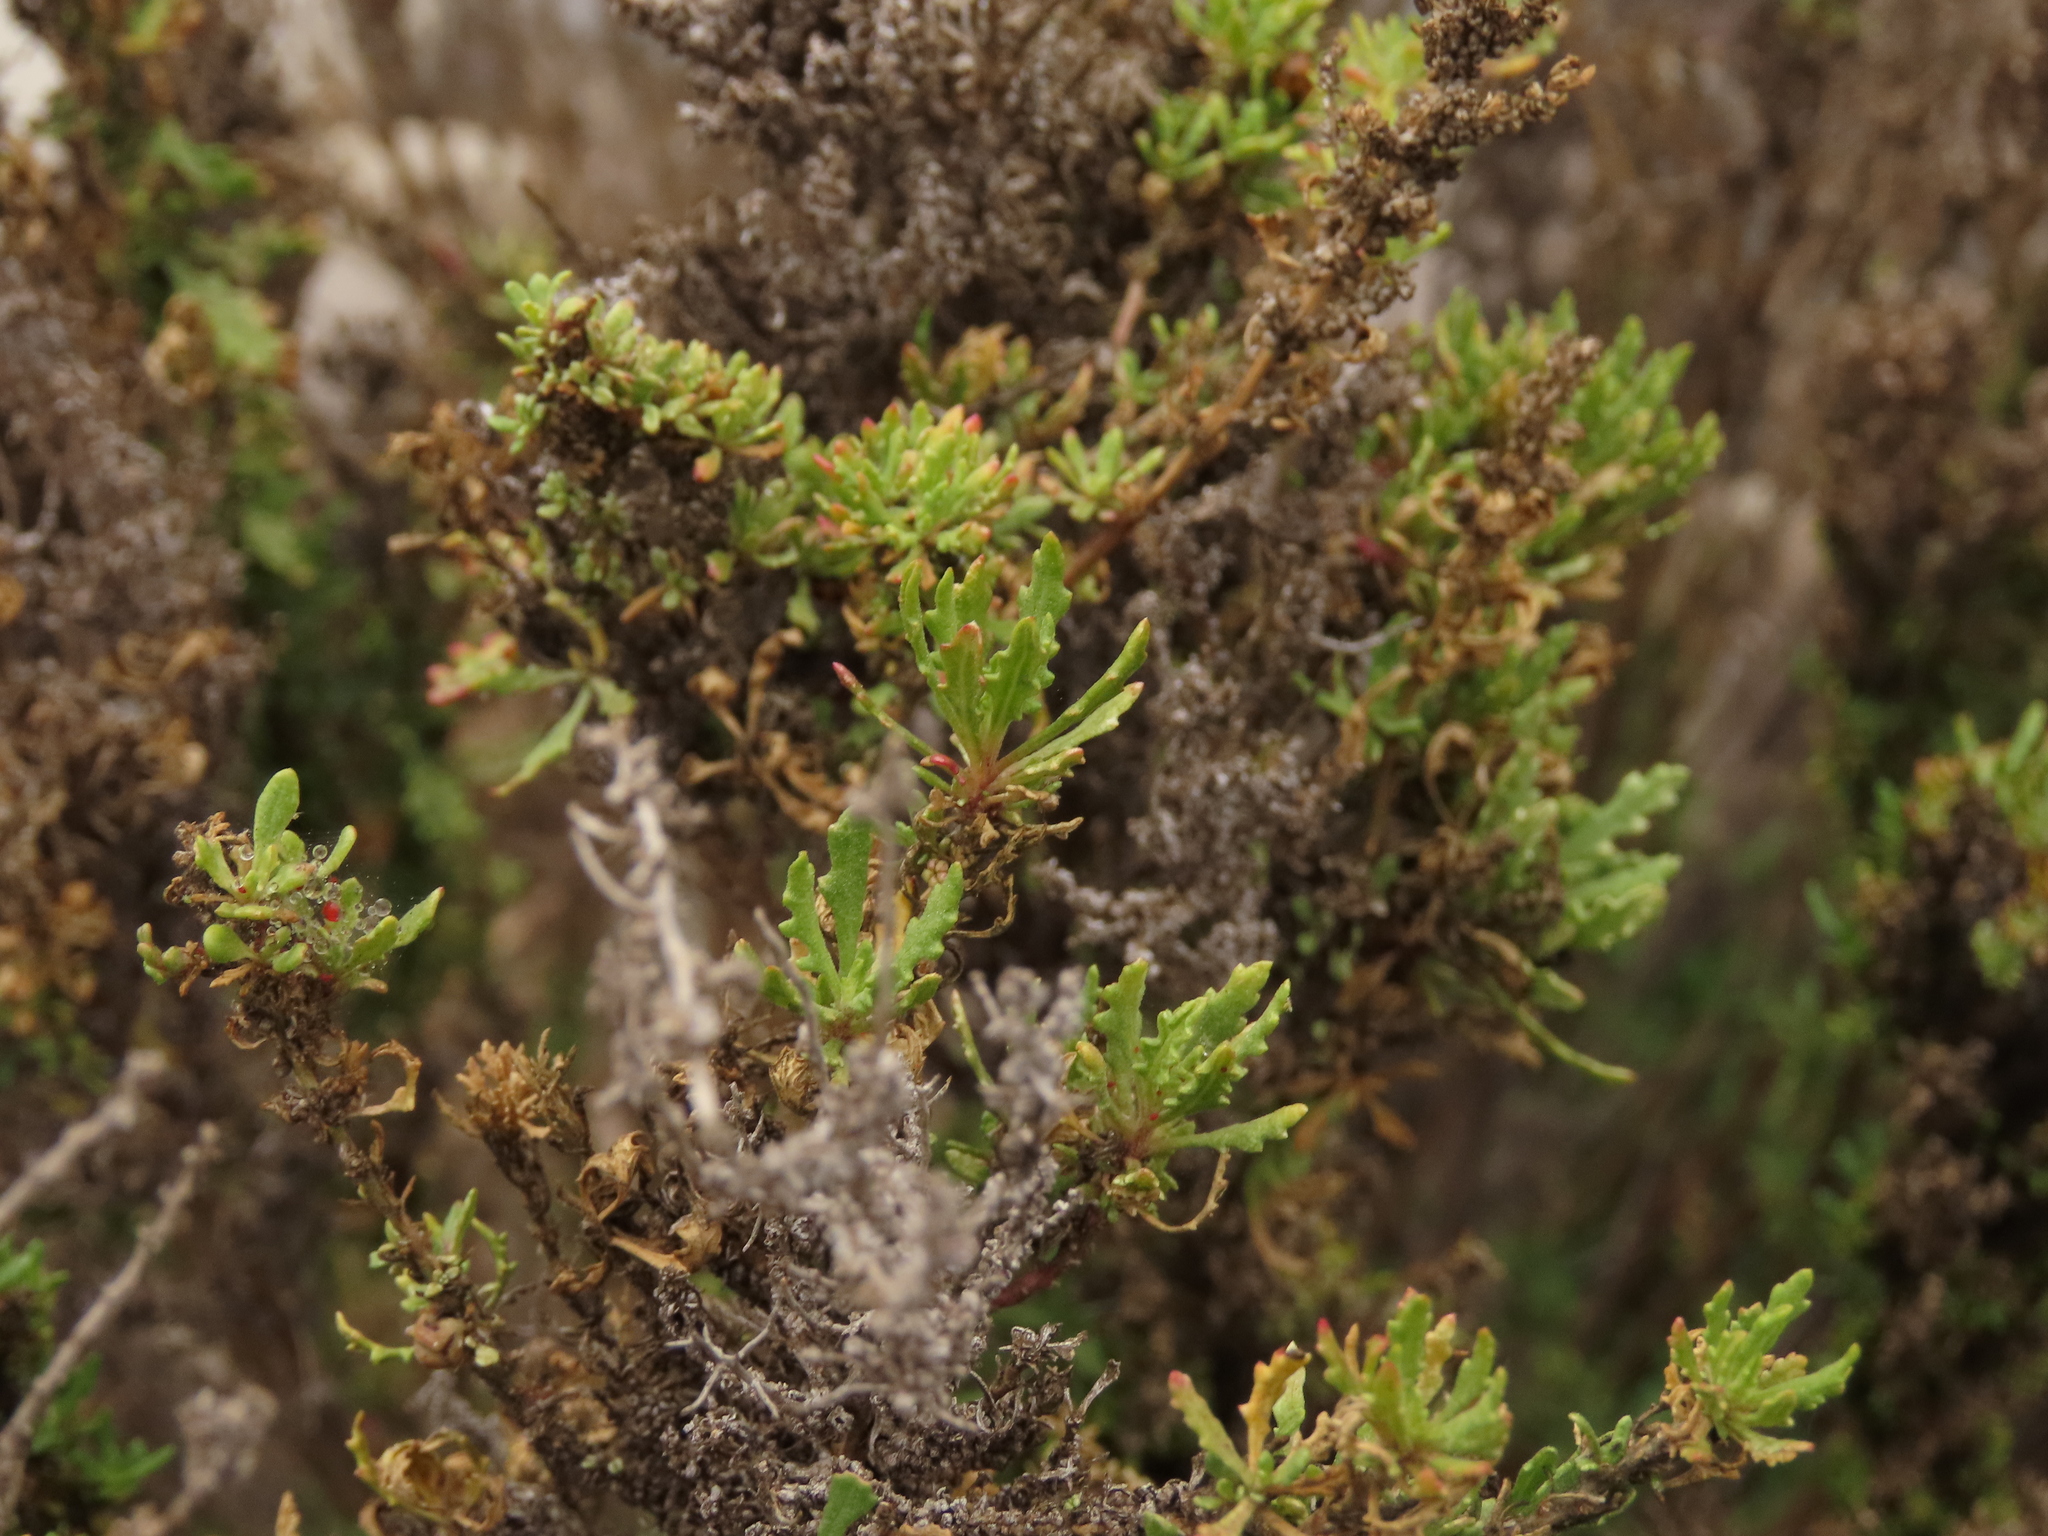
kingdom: Plantae
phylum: Tracheophyta
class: Magnoliopsida
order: Caryophyllales
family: Amaranthaceae
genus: Dysphania
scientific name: Dysphania ambrosioides
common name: Wormseed
